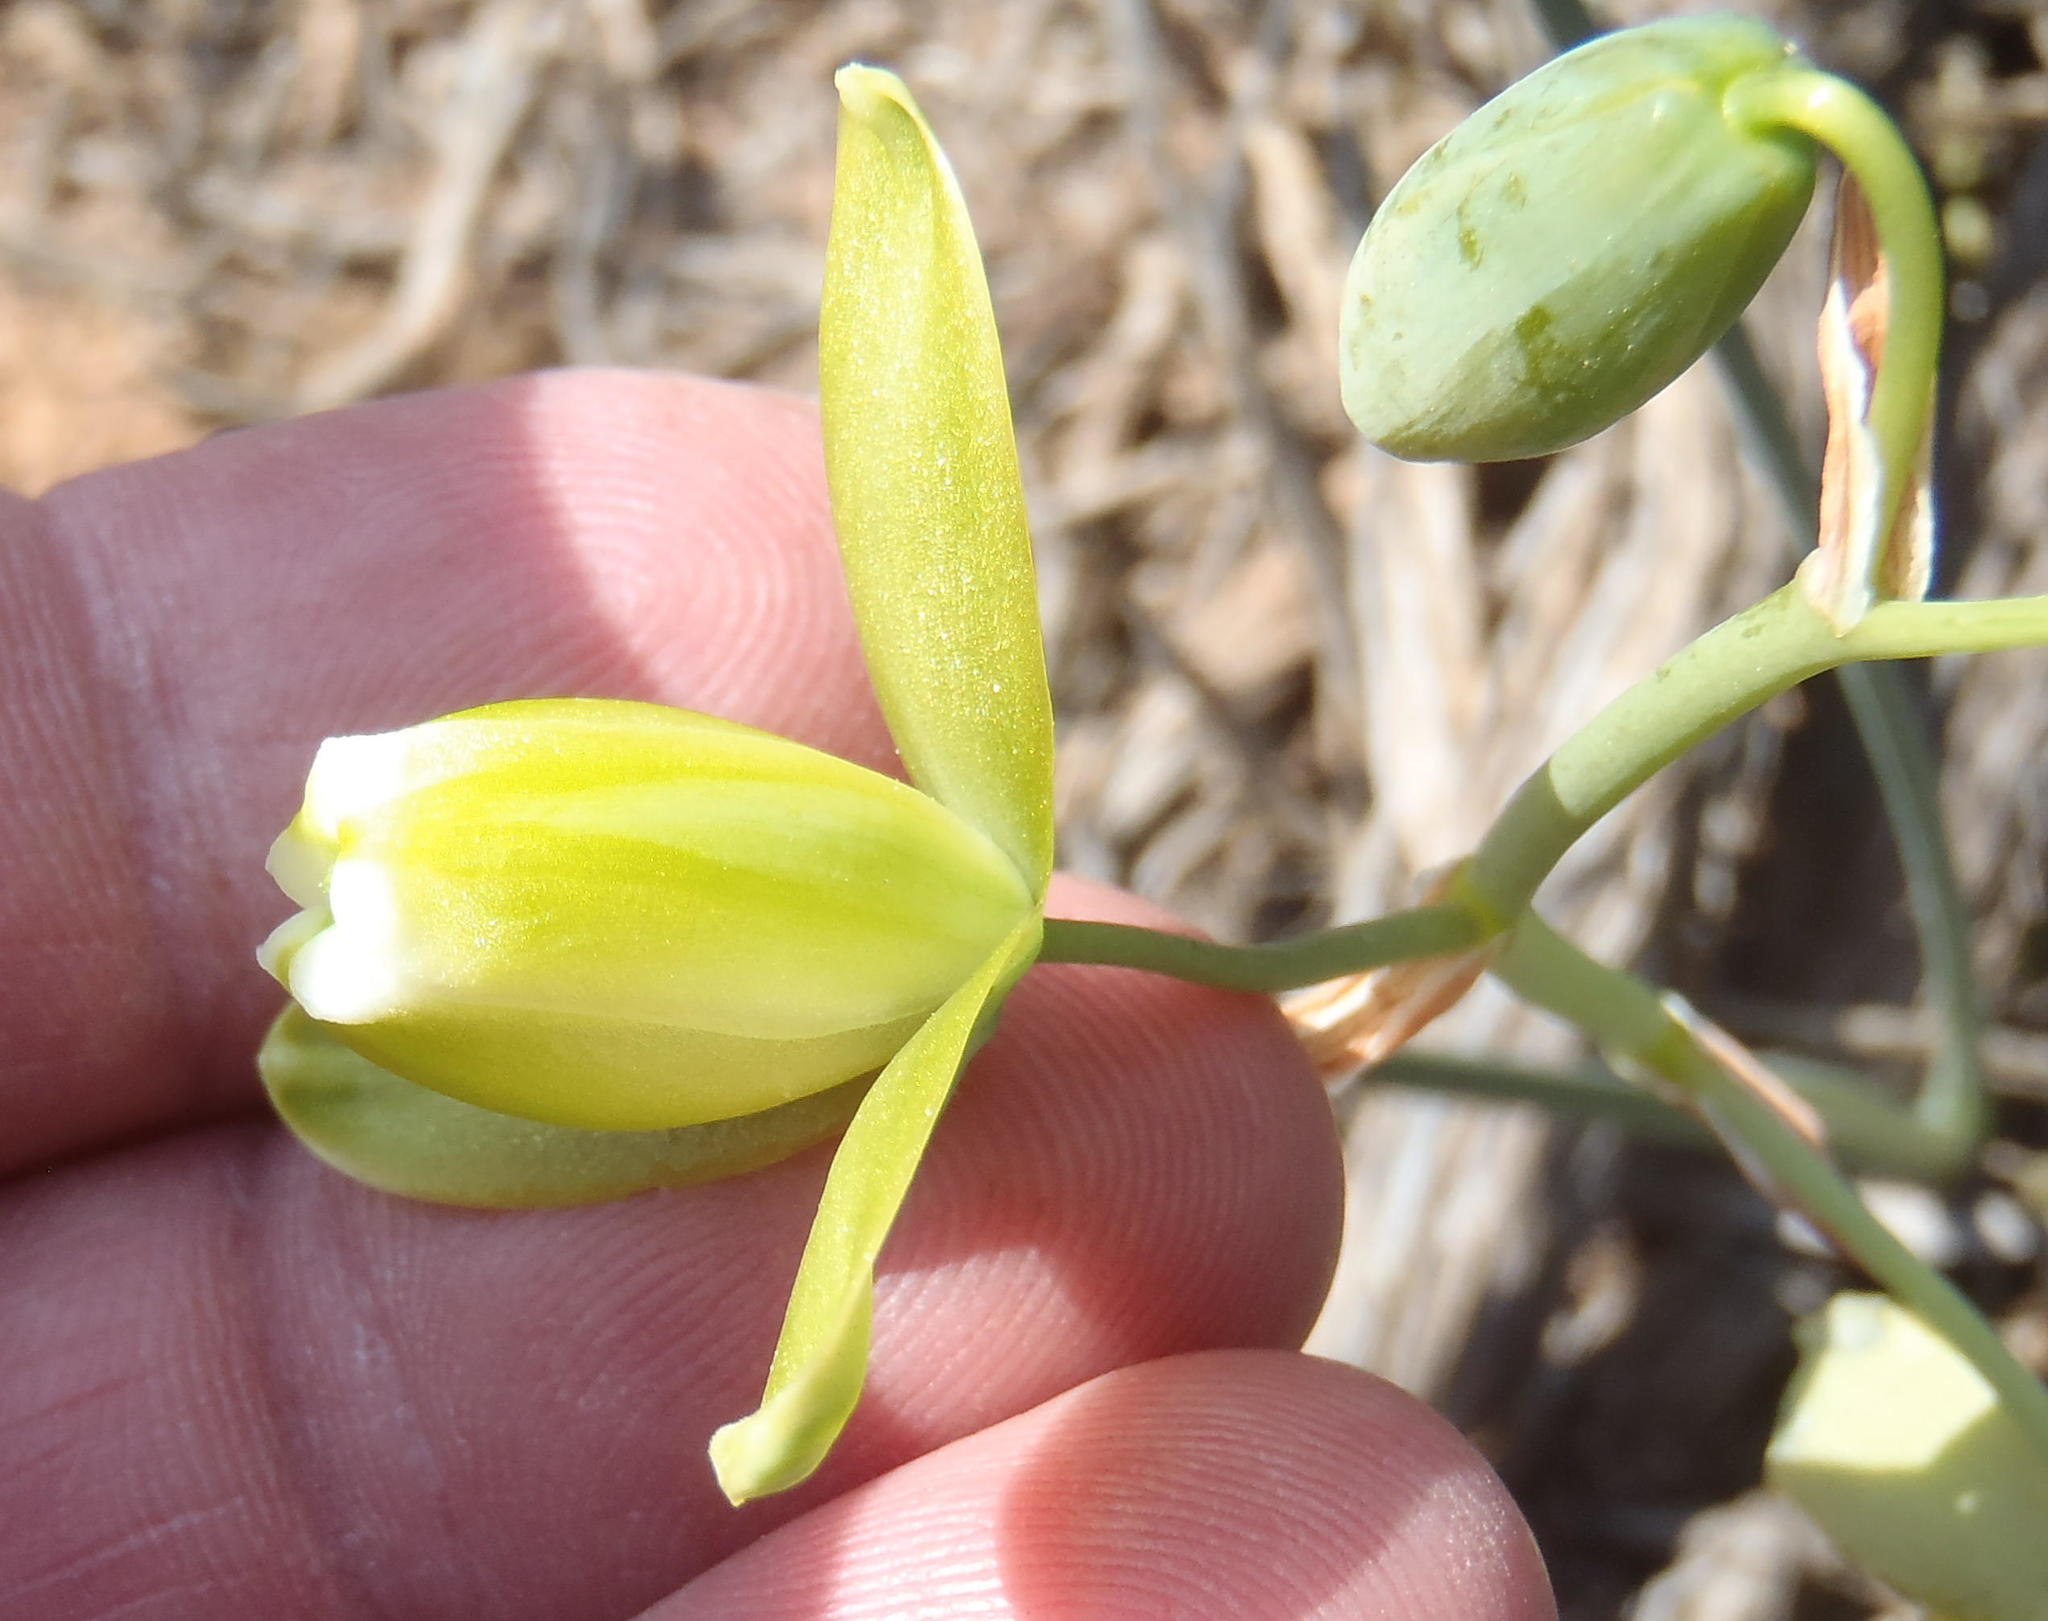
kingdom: Plantae
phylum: Tracheophyta
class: Liliopsida
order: Asparagales
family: Asparagaceae
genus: Albuca
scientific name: Albuca cooperi
